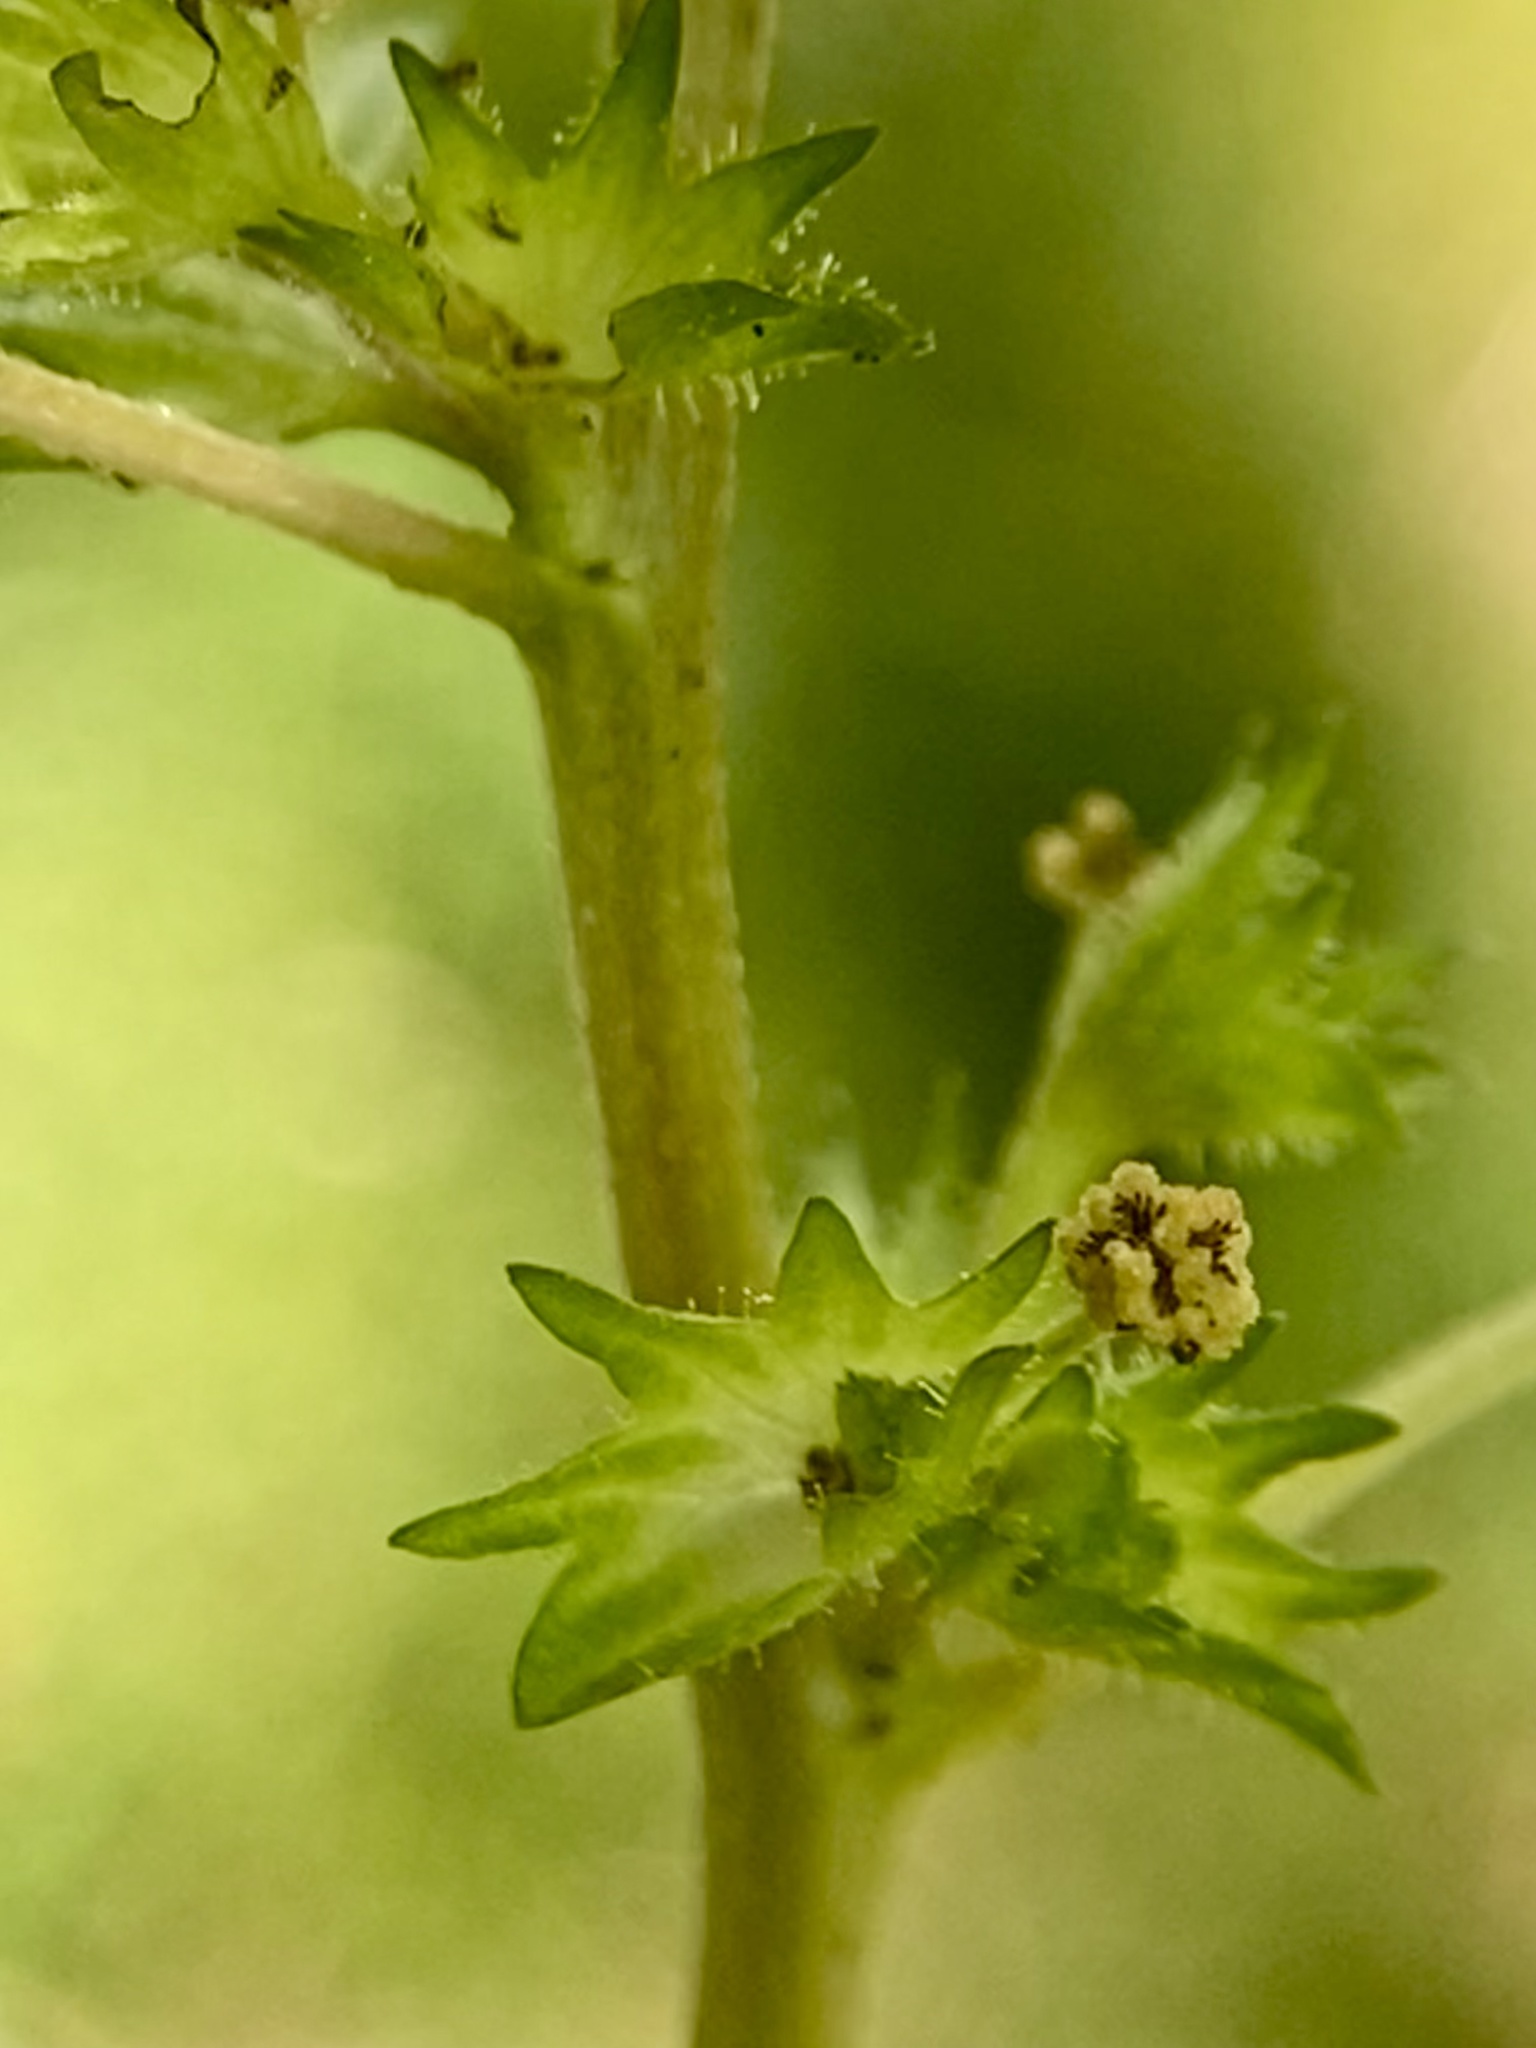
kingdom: Plantae
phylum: Tracheophyta
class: Magnoliopsida
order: Malpighiales
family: Euphorbiaceae
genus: Acalypha
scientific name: Acalypha rhomboidea
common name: Rhombic copperleaf
